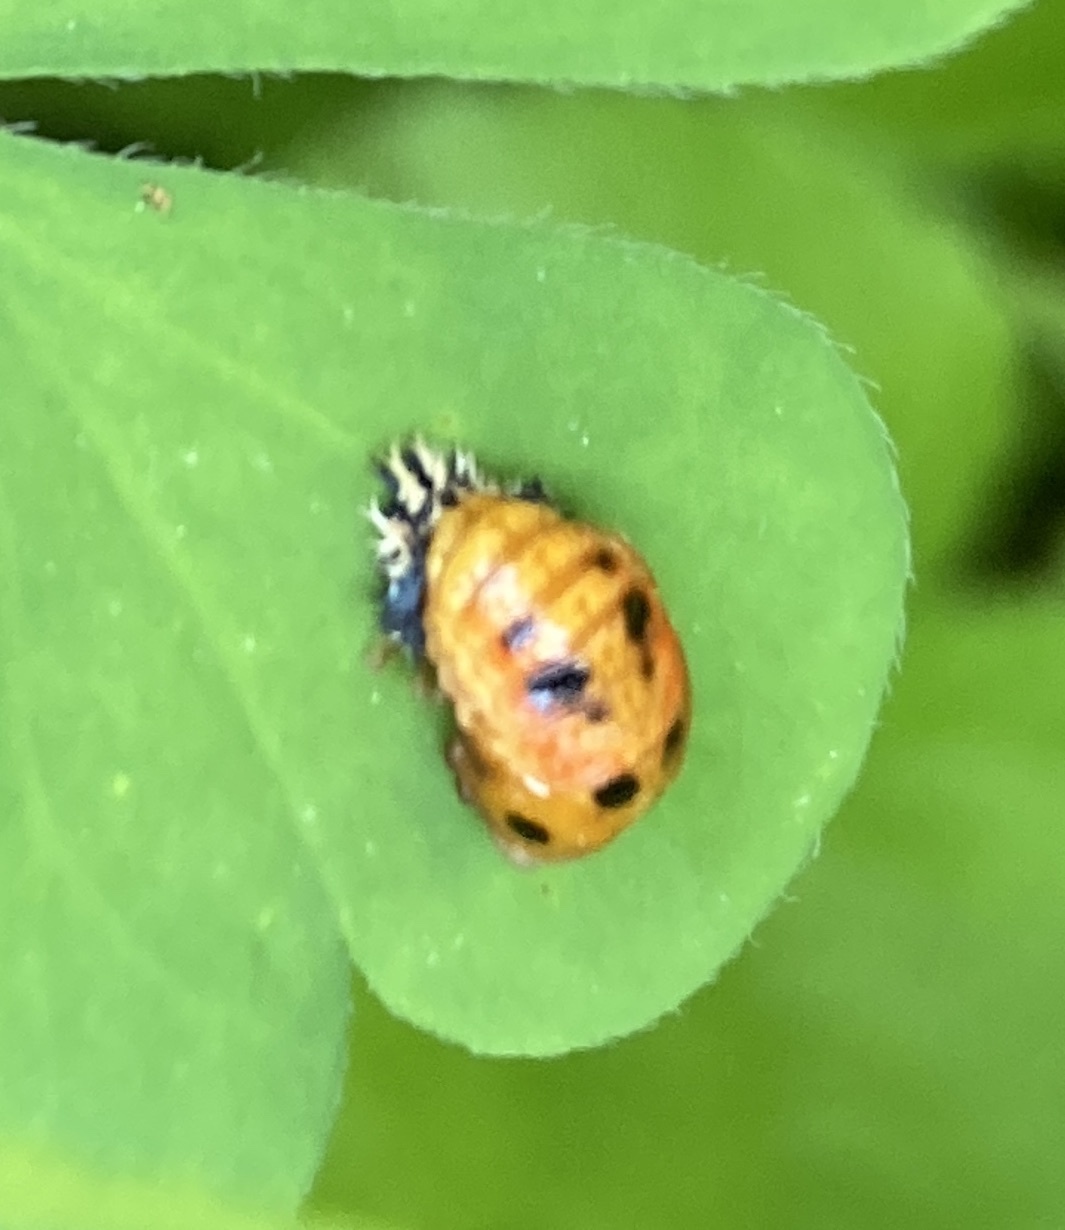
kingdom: Animalia
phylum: Arthropoda
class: Insecta
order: Coleoptera
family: Coccinellidae
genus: Harmonia
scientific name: Harmonia axyridis
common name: Harlequin ladybird
